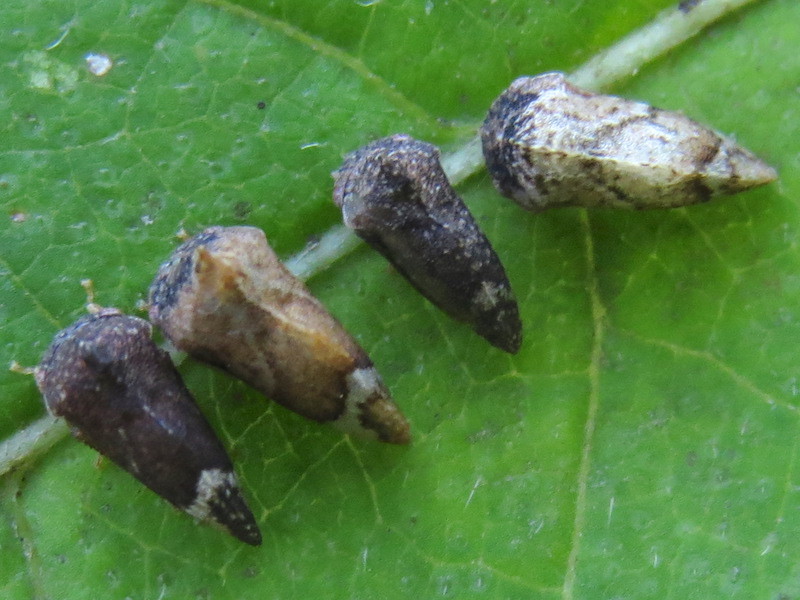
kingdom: Animalia
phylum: Arthropoda
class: Insecta
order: Hemiptera
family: Membracidae
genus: Entylia
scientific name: Entylia carinata
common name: Keeled treehopper
